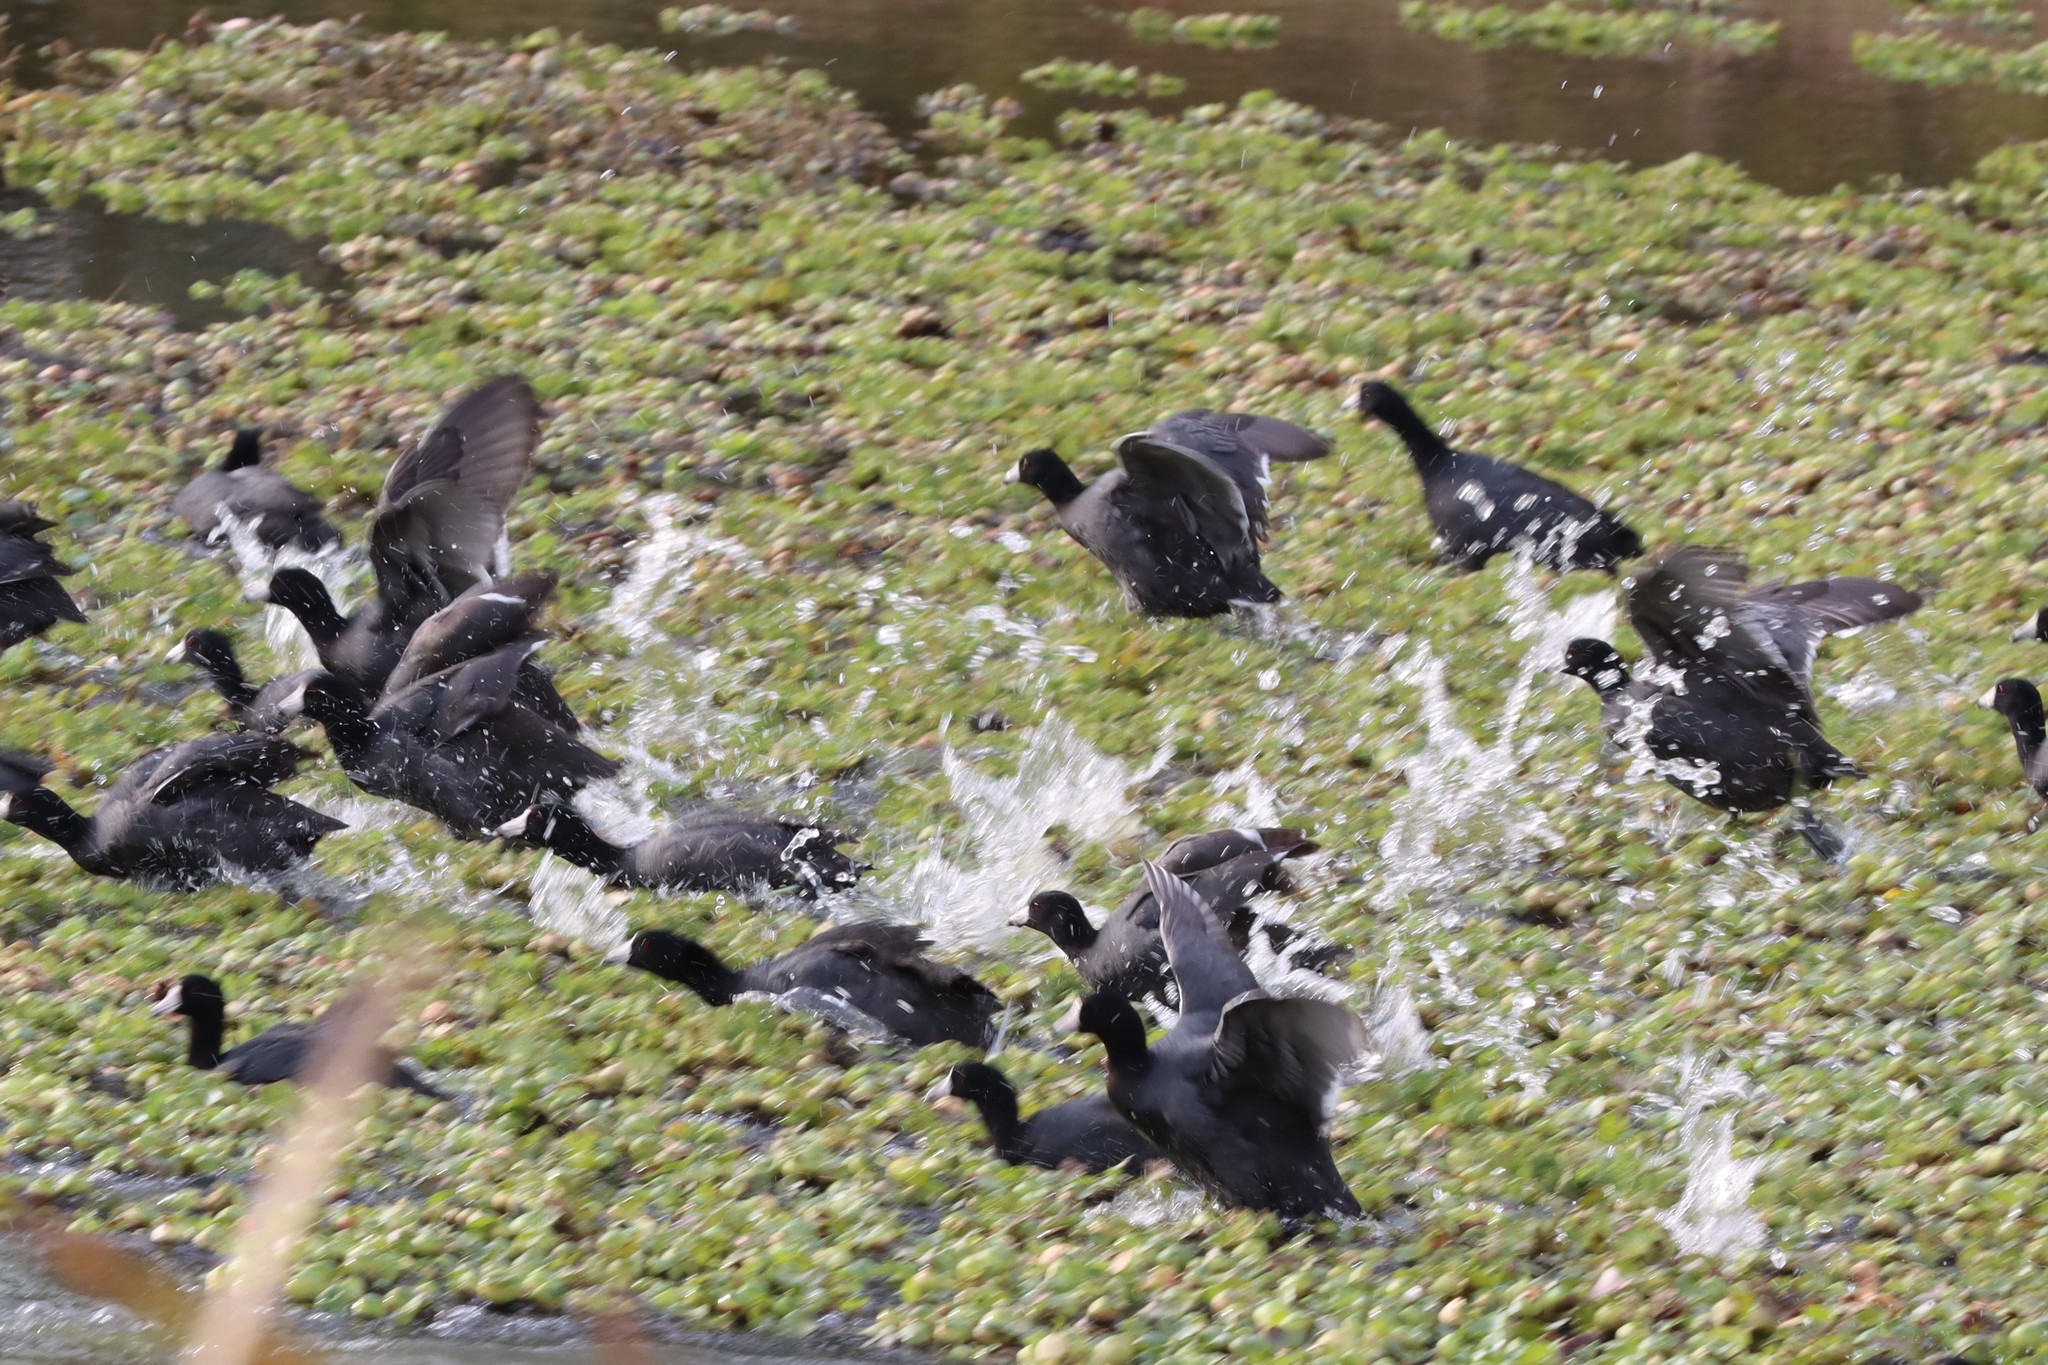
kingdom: Animalia
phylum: Chordata
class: Aves
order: Gruiformes
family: Rallidae
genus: Fulica
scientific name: Fulica americana
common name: American coot
